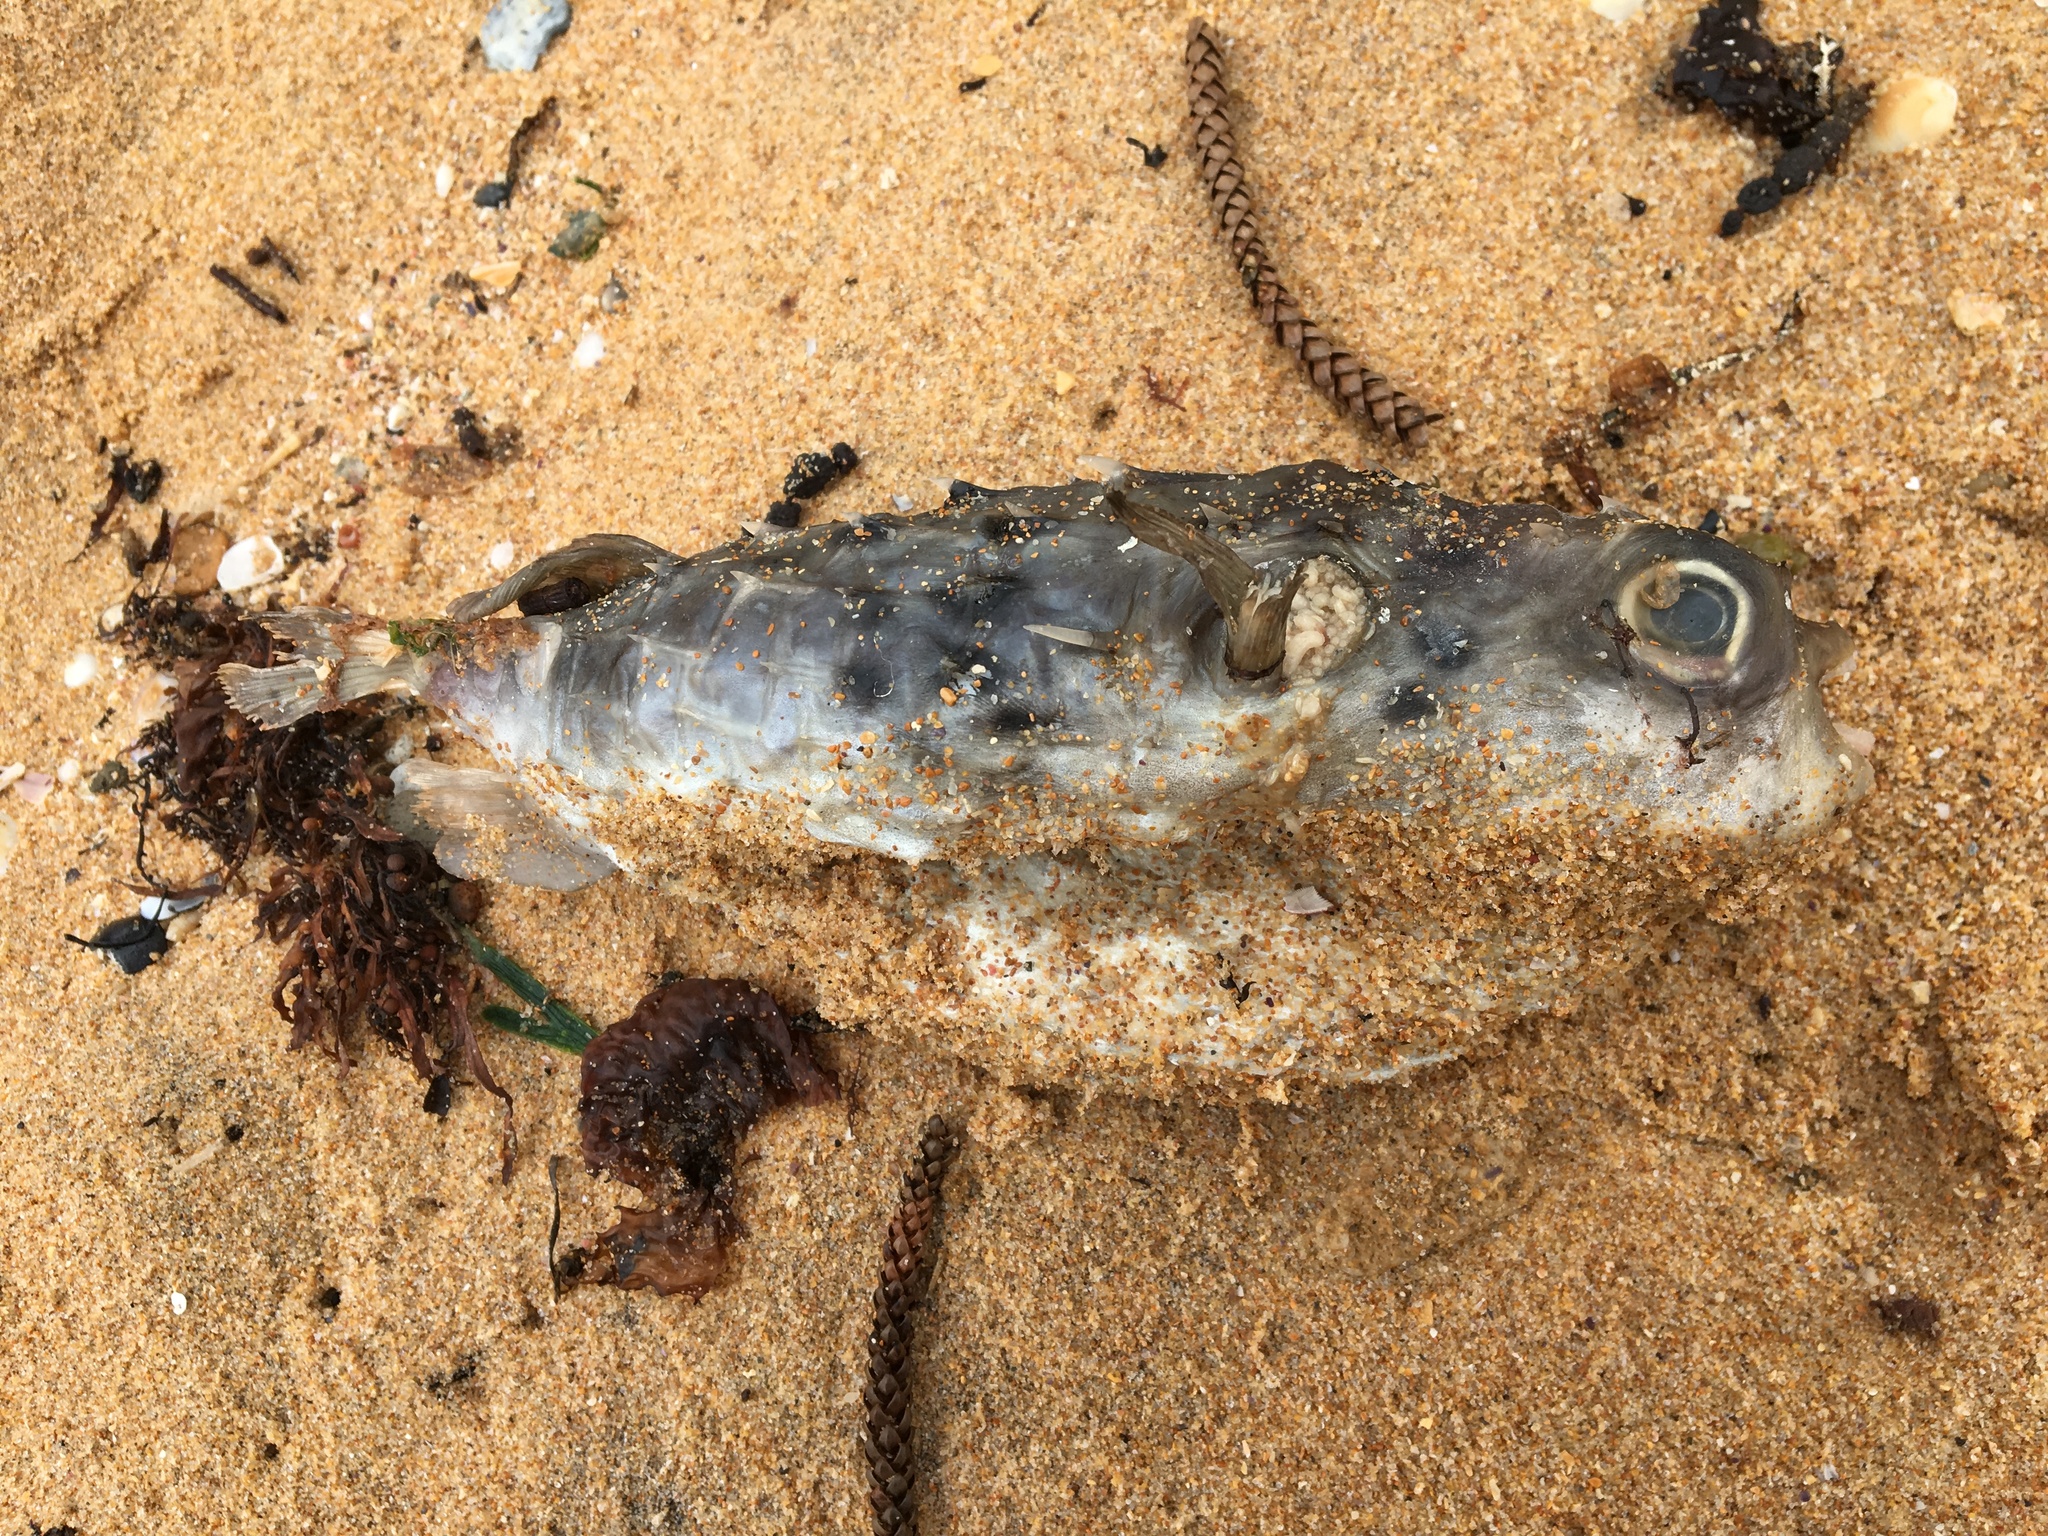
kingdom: Animalia
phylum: Chordata
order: Tetraodontiformes
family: Diodontidae
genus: Allomycterus
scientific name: Allomycterus pilatus
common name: No common name
